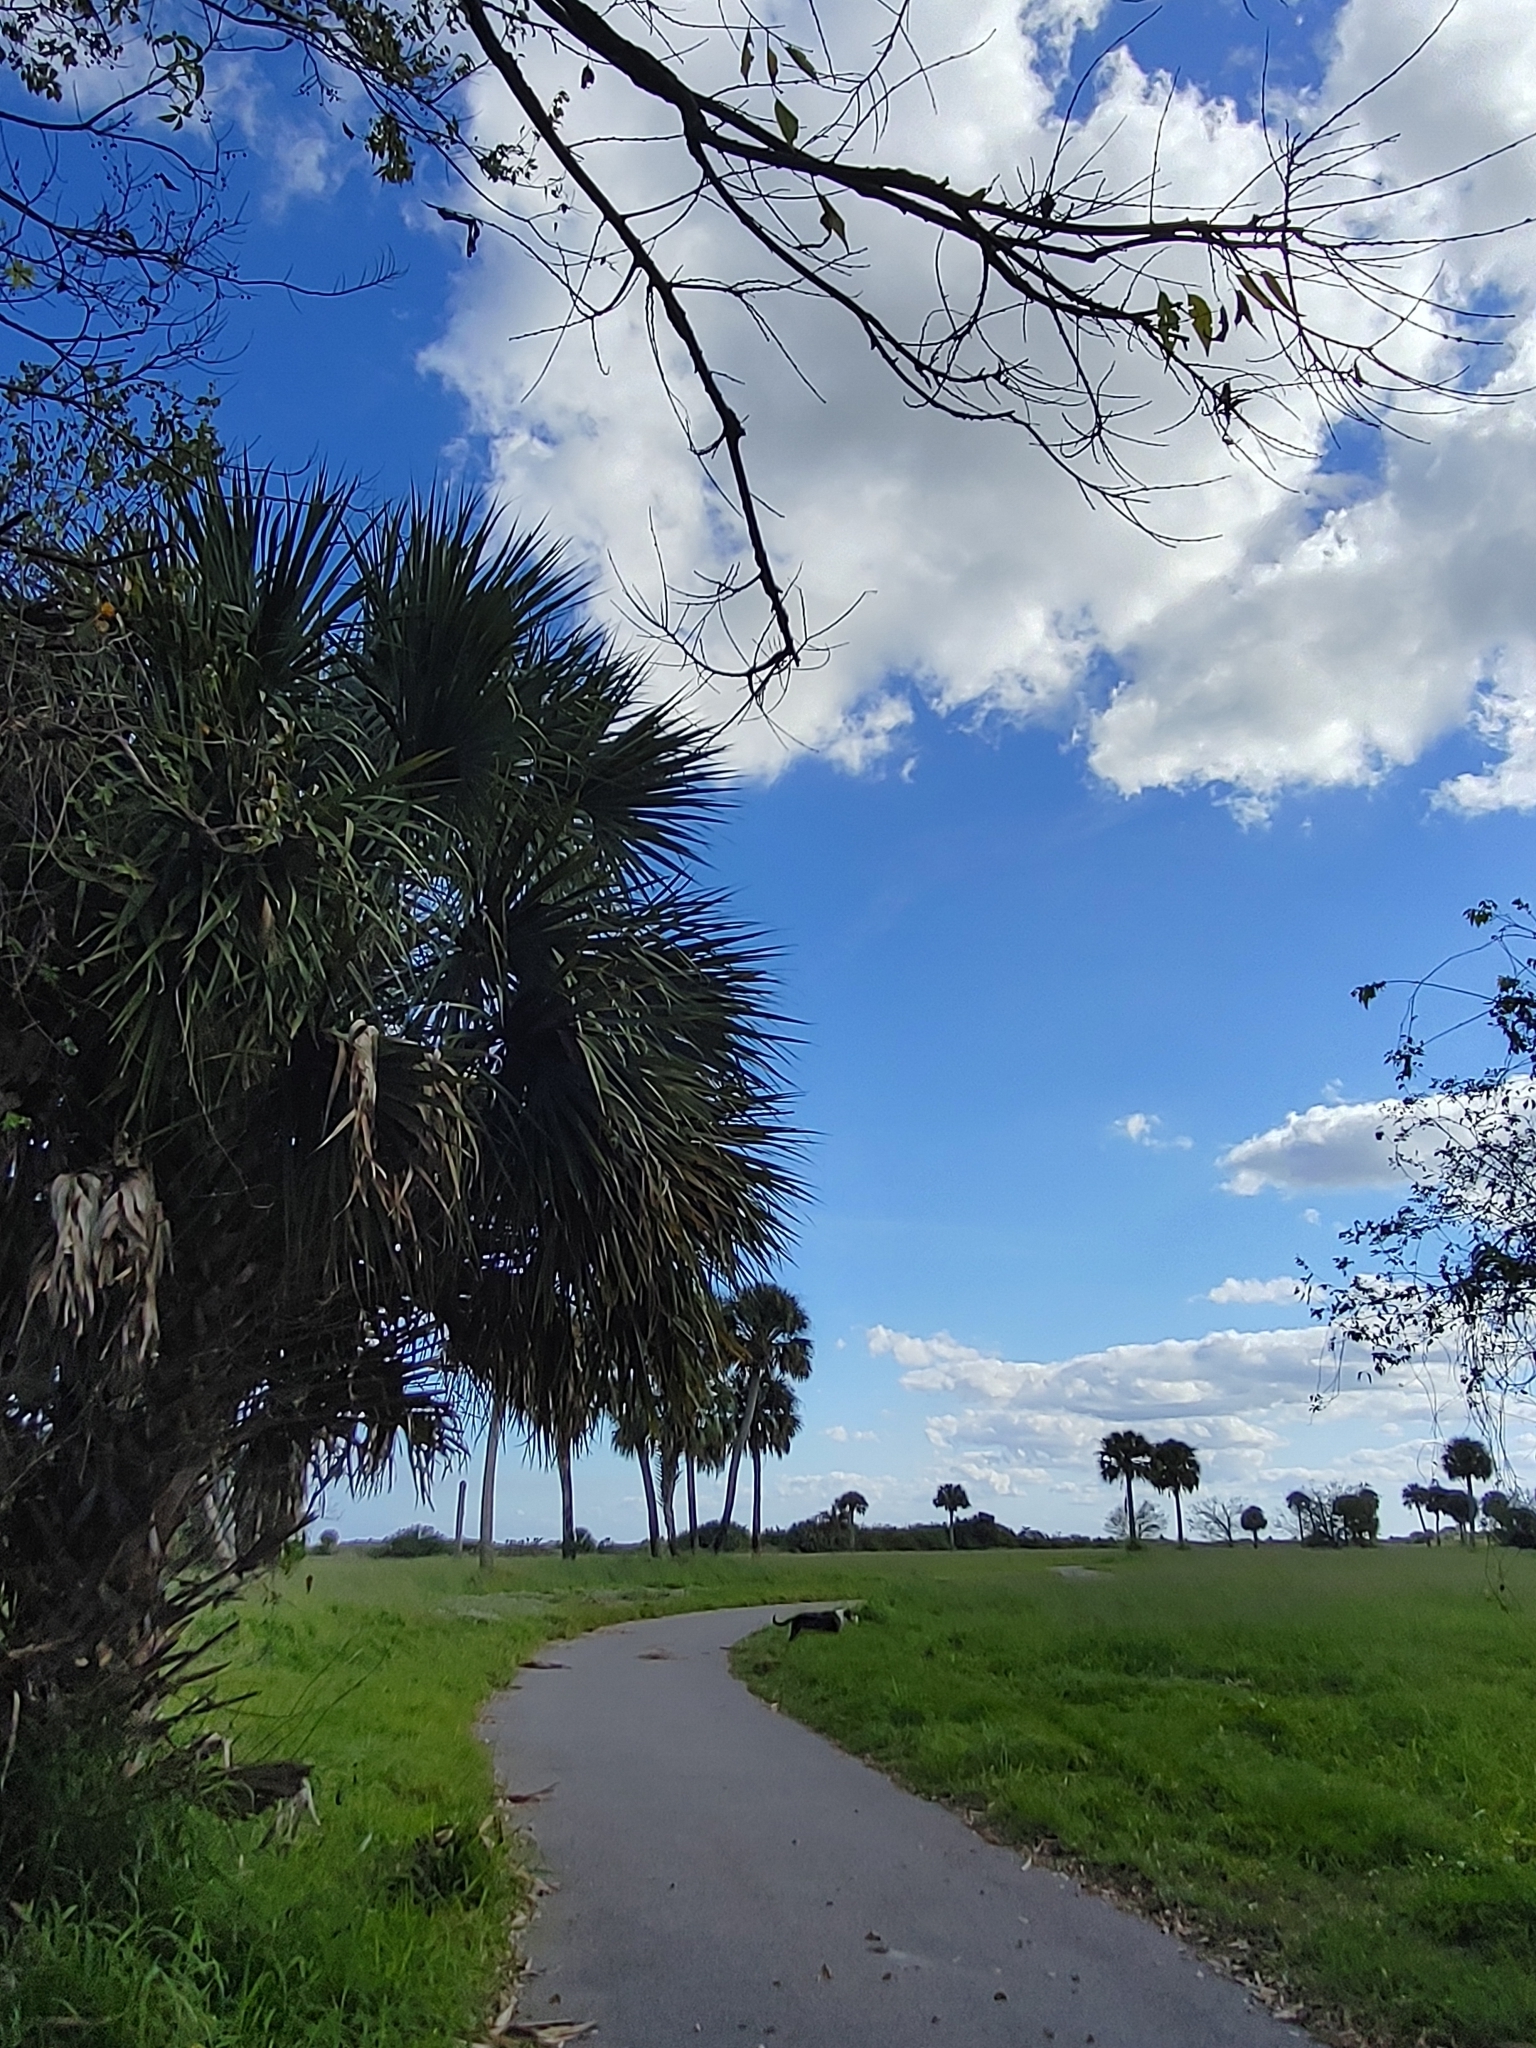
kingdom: Plantae
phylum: Tracheophyta
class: Liliopsida
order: Arecales
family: Arecaceae
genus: Sabal
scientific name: Sabal palmetto
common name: Blue palmetto
